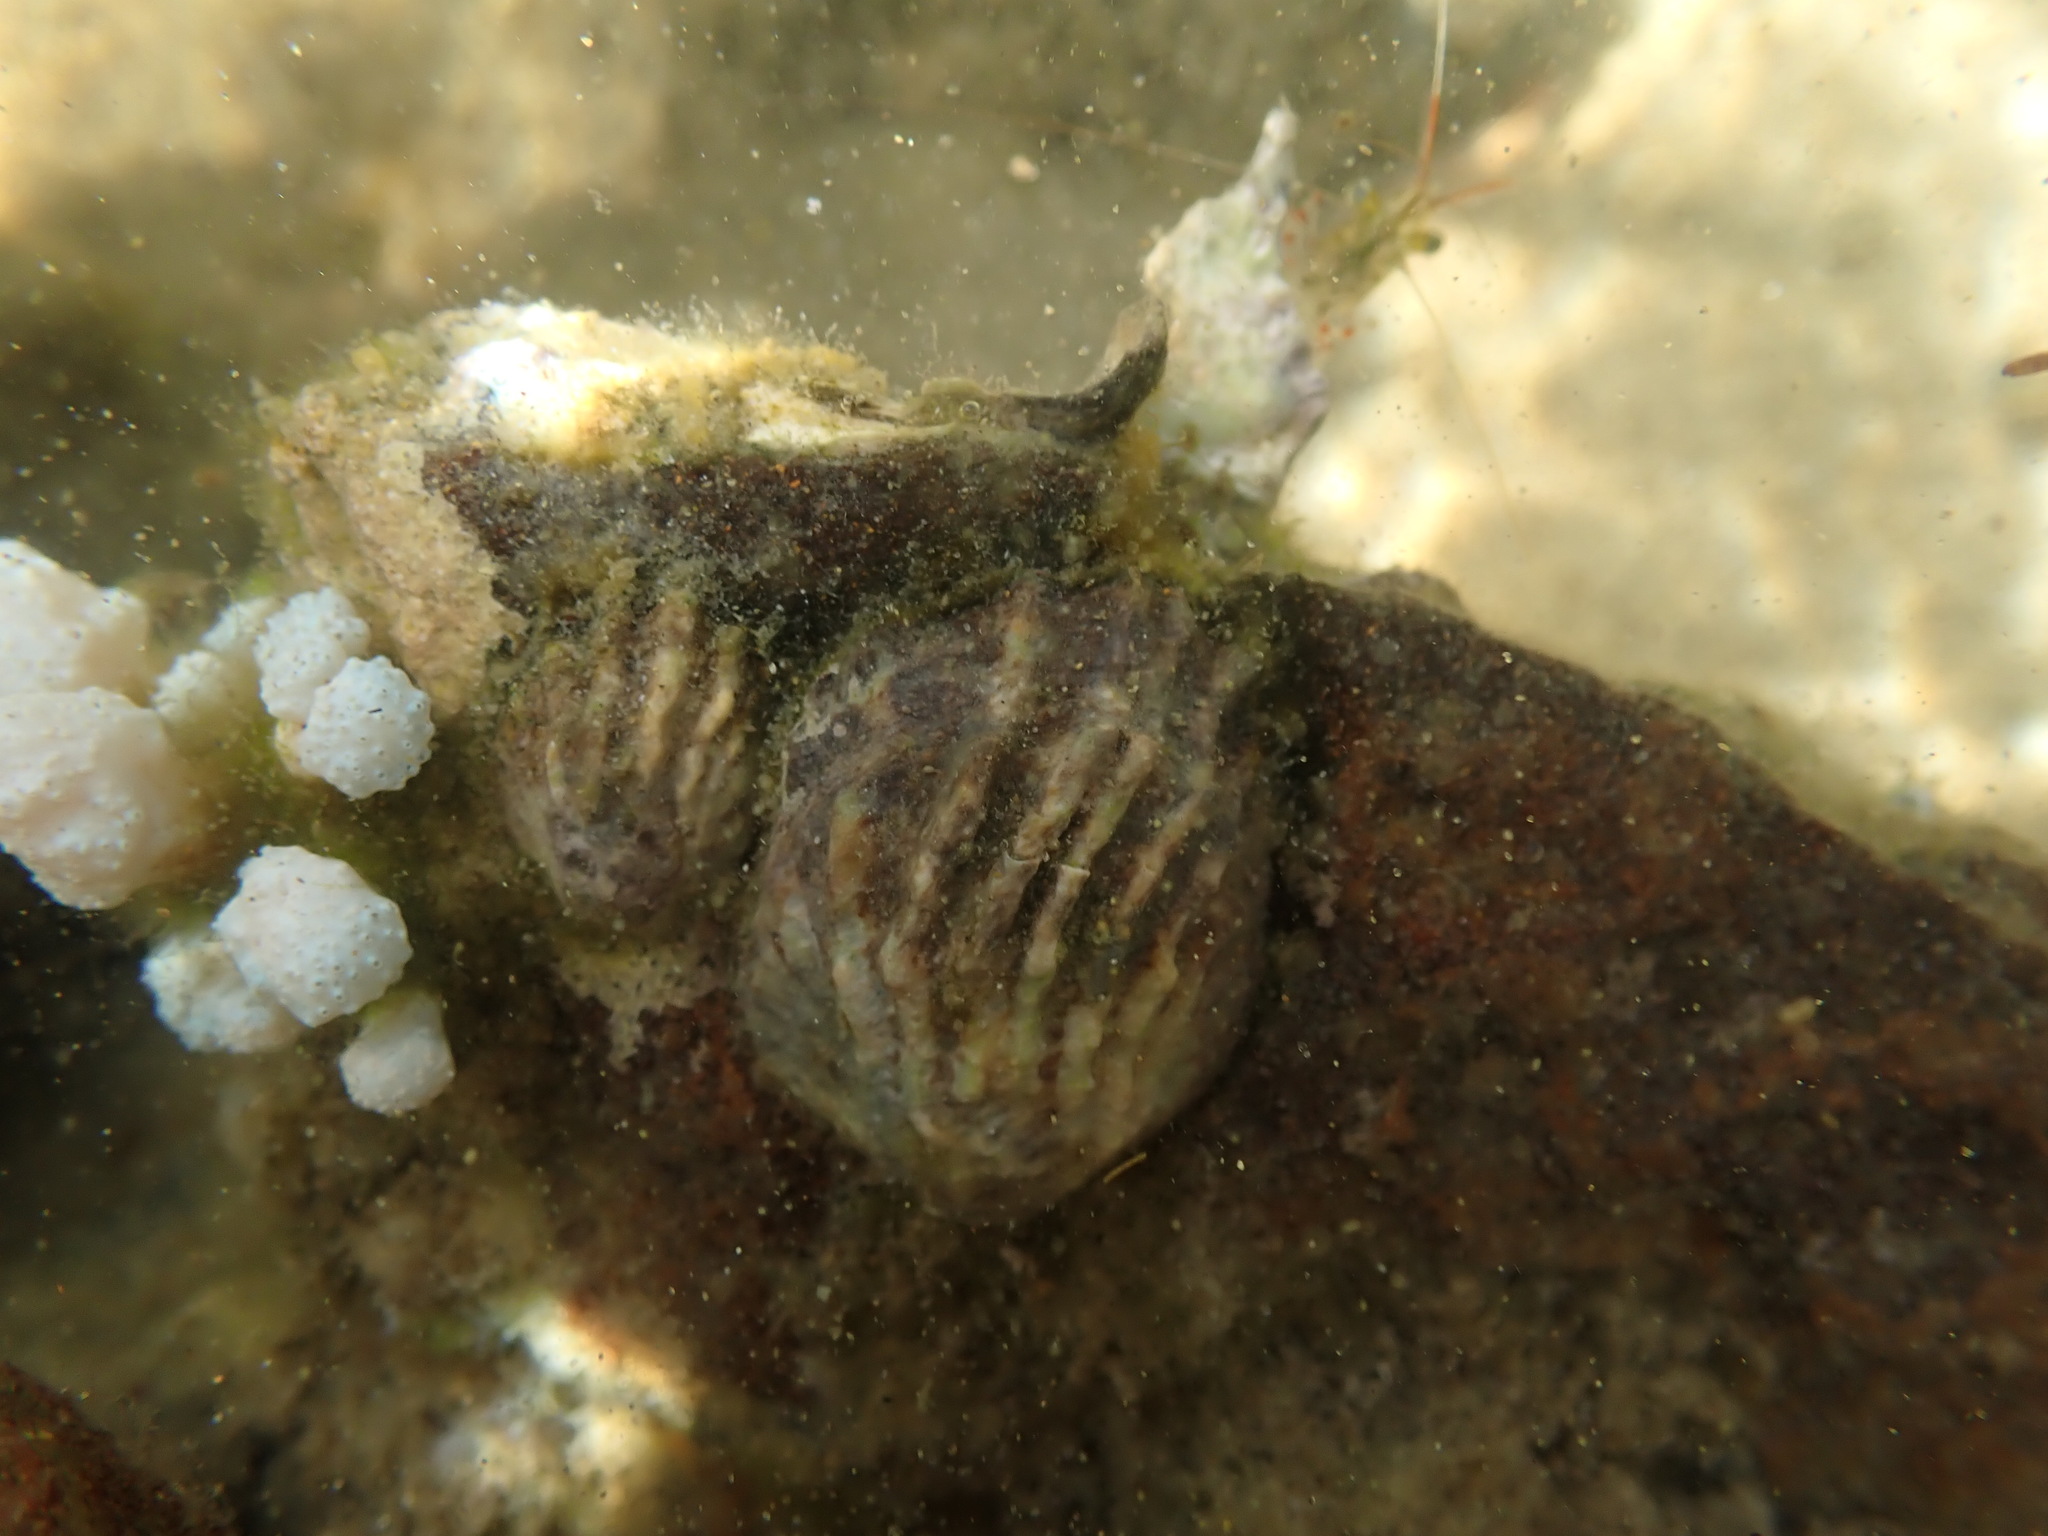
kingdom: Animalia
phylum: Mollusca
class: Gastropoda
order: Littorinimorpha
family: Calyptraeidae
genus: Maoricrypta
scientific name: Maoricrypta costata
